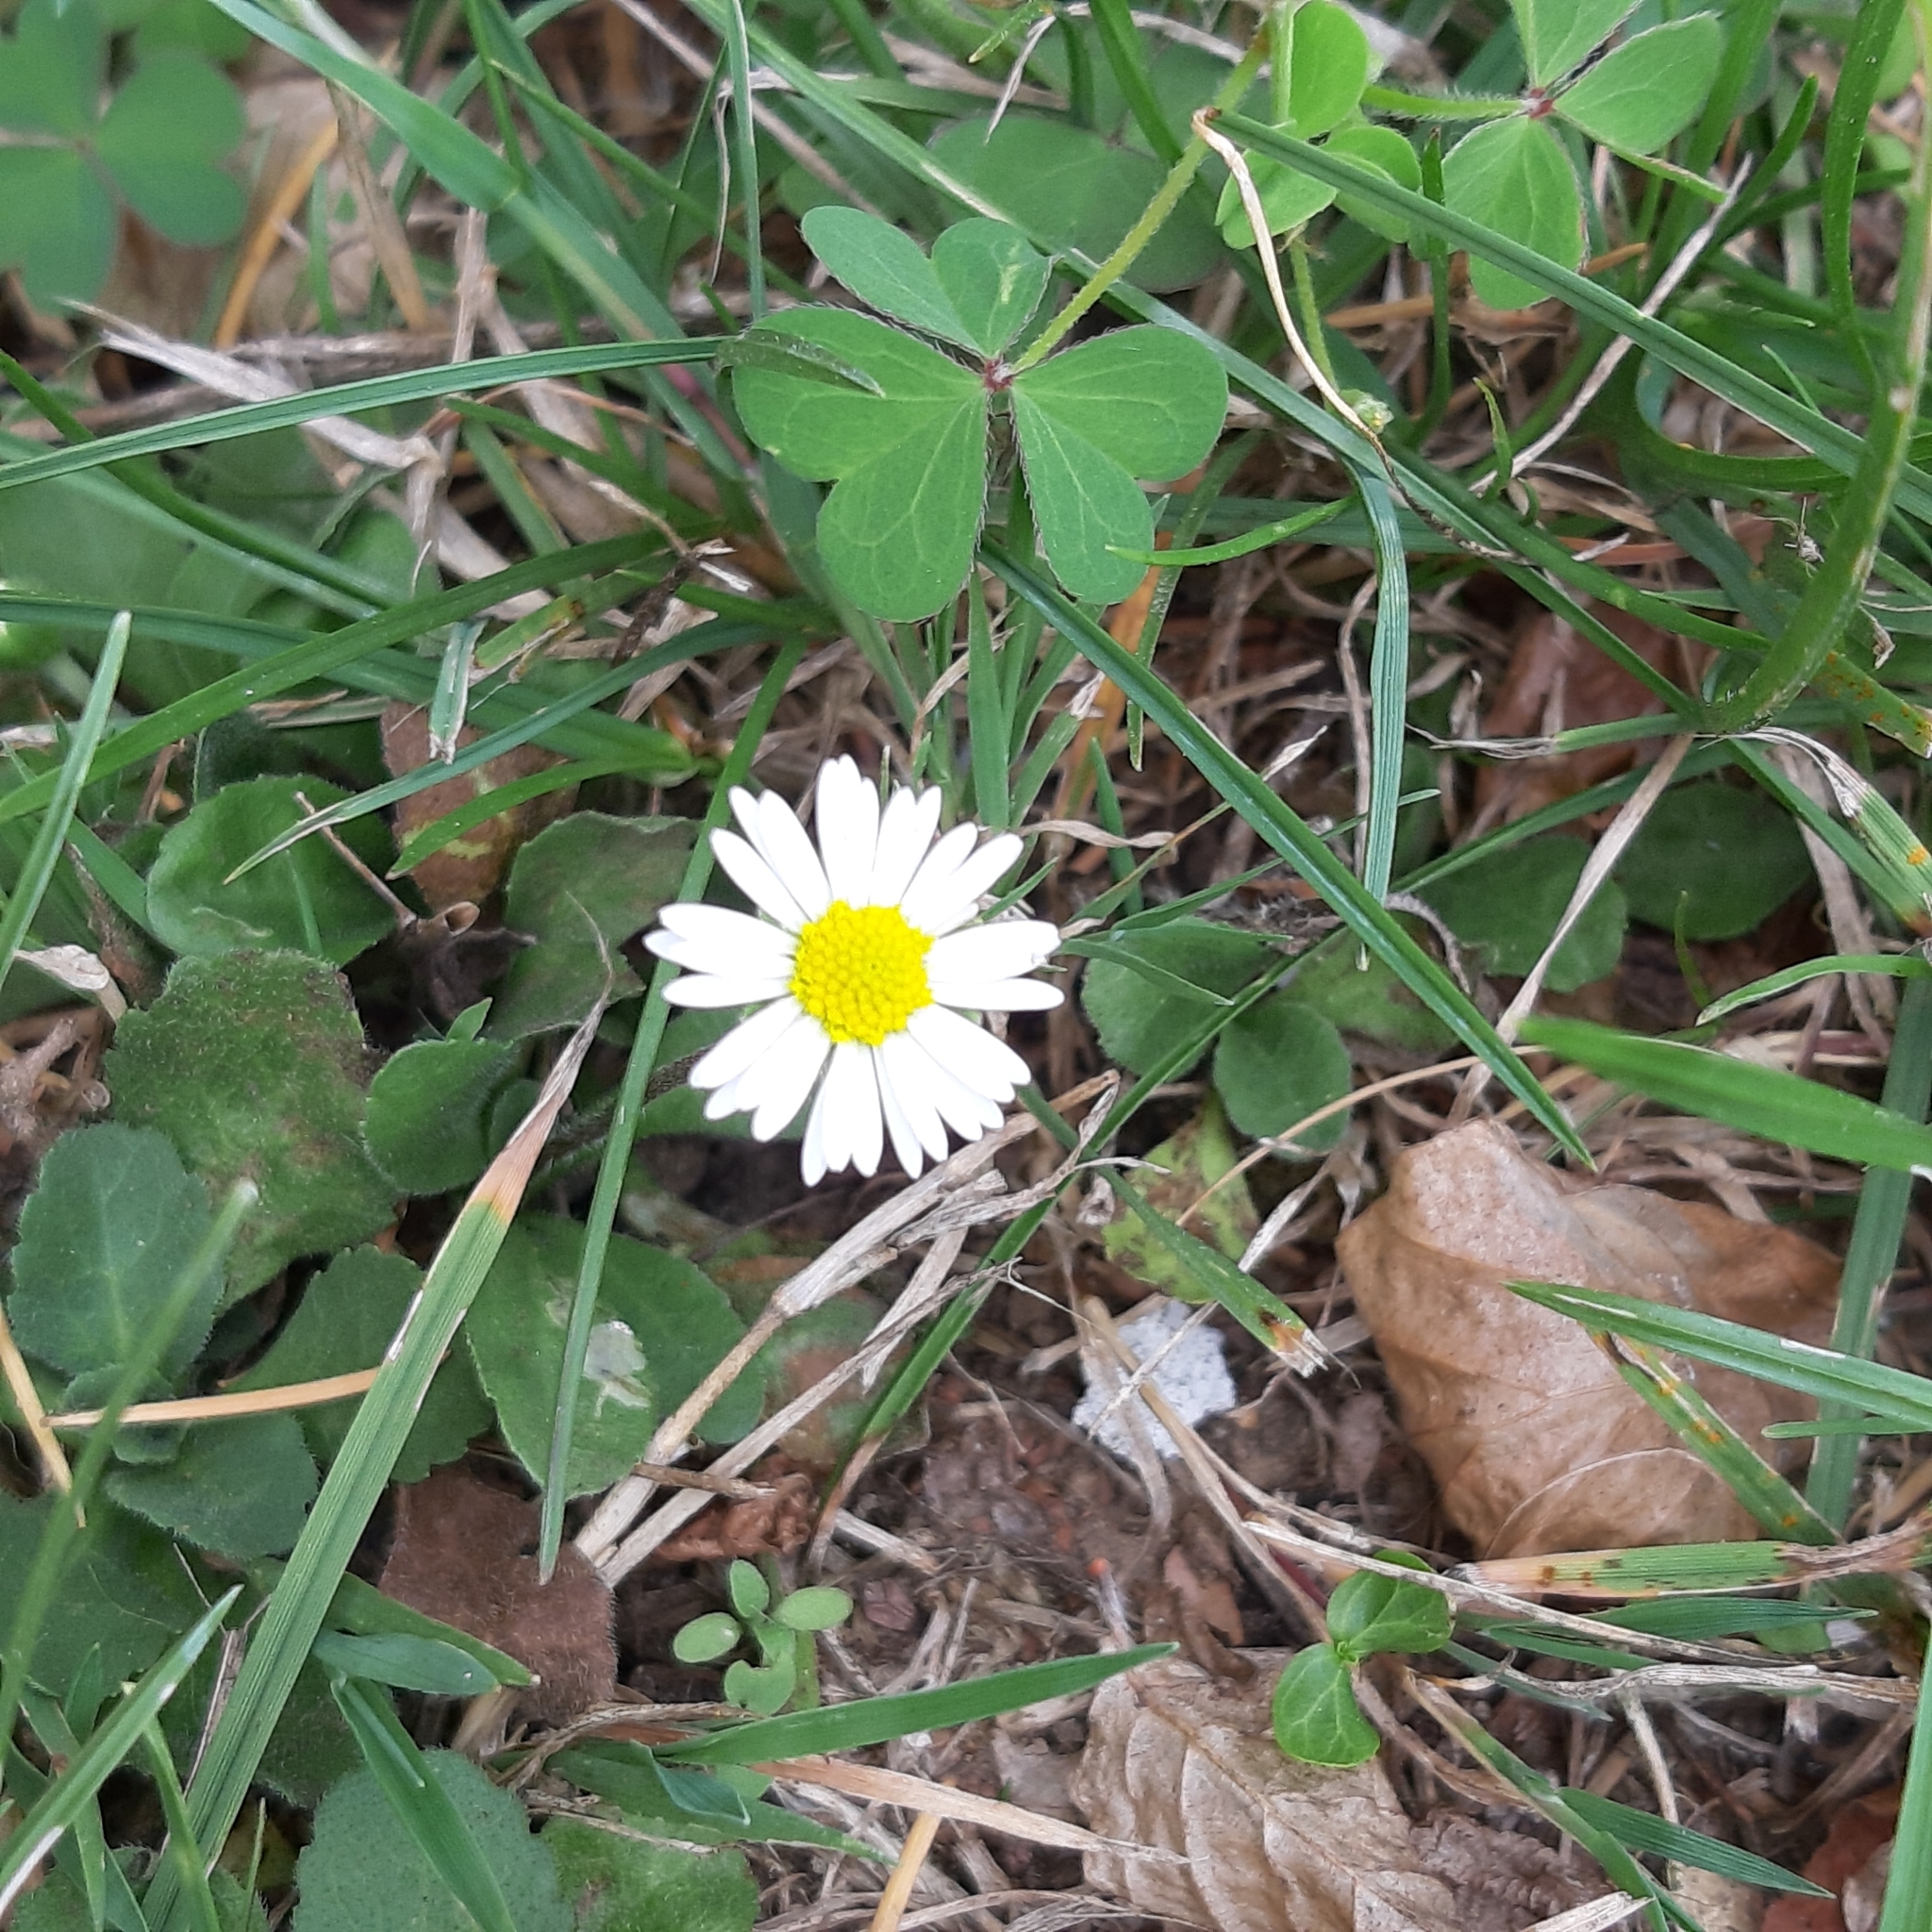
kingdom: Plantae
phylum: Tracheophyta
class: Magnoliopsida
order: Asterales
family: Asteraceae
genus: Bellis
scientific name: Bellis perennis
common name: Lawndaisy
